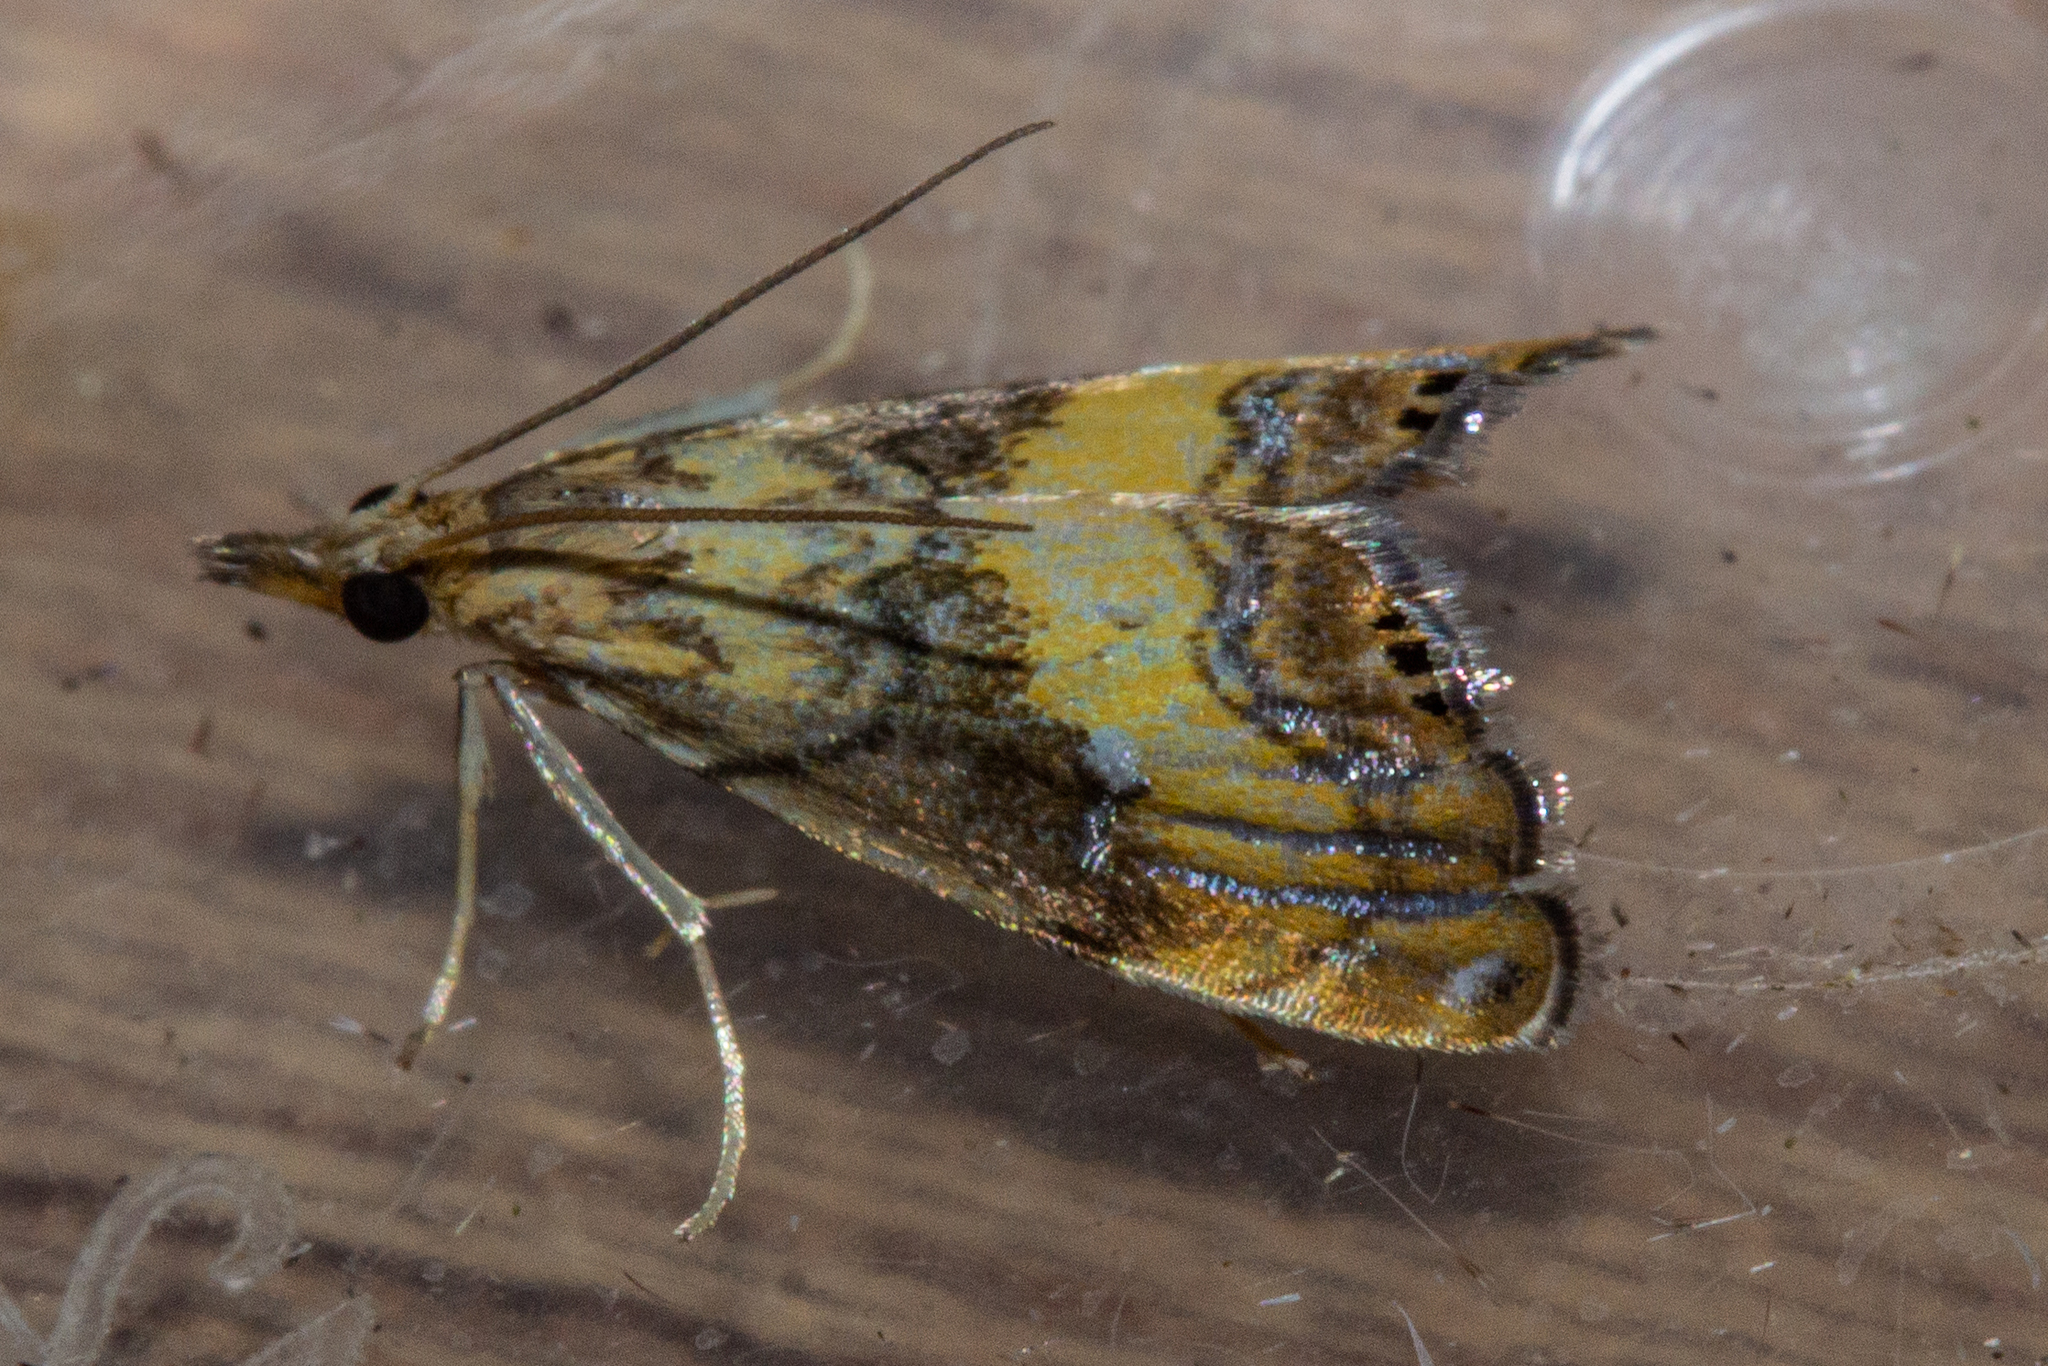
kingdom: Animalia
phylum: Arthropoda
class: Insecta
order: Lepidoptera
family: Crambidae
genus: Glaucocharis
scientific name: Glaucocharis chrysochyta
